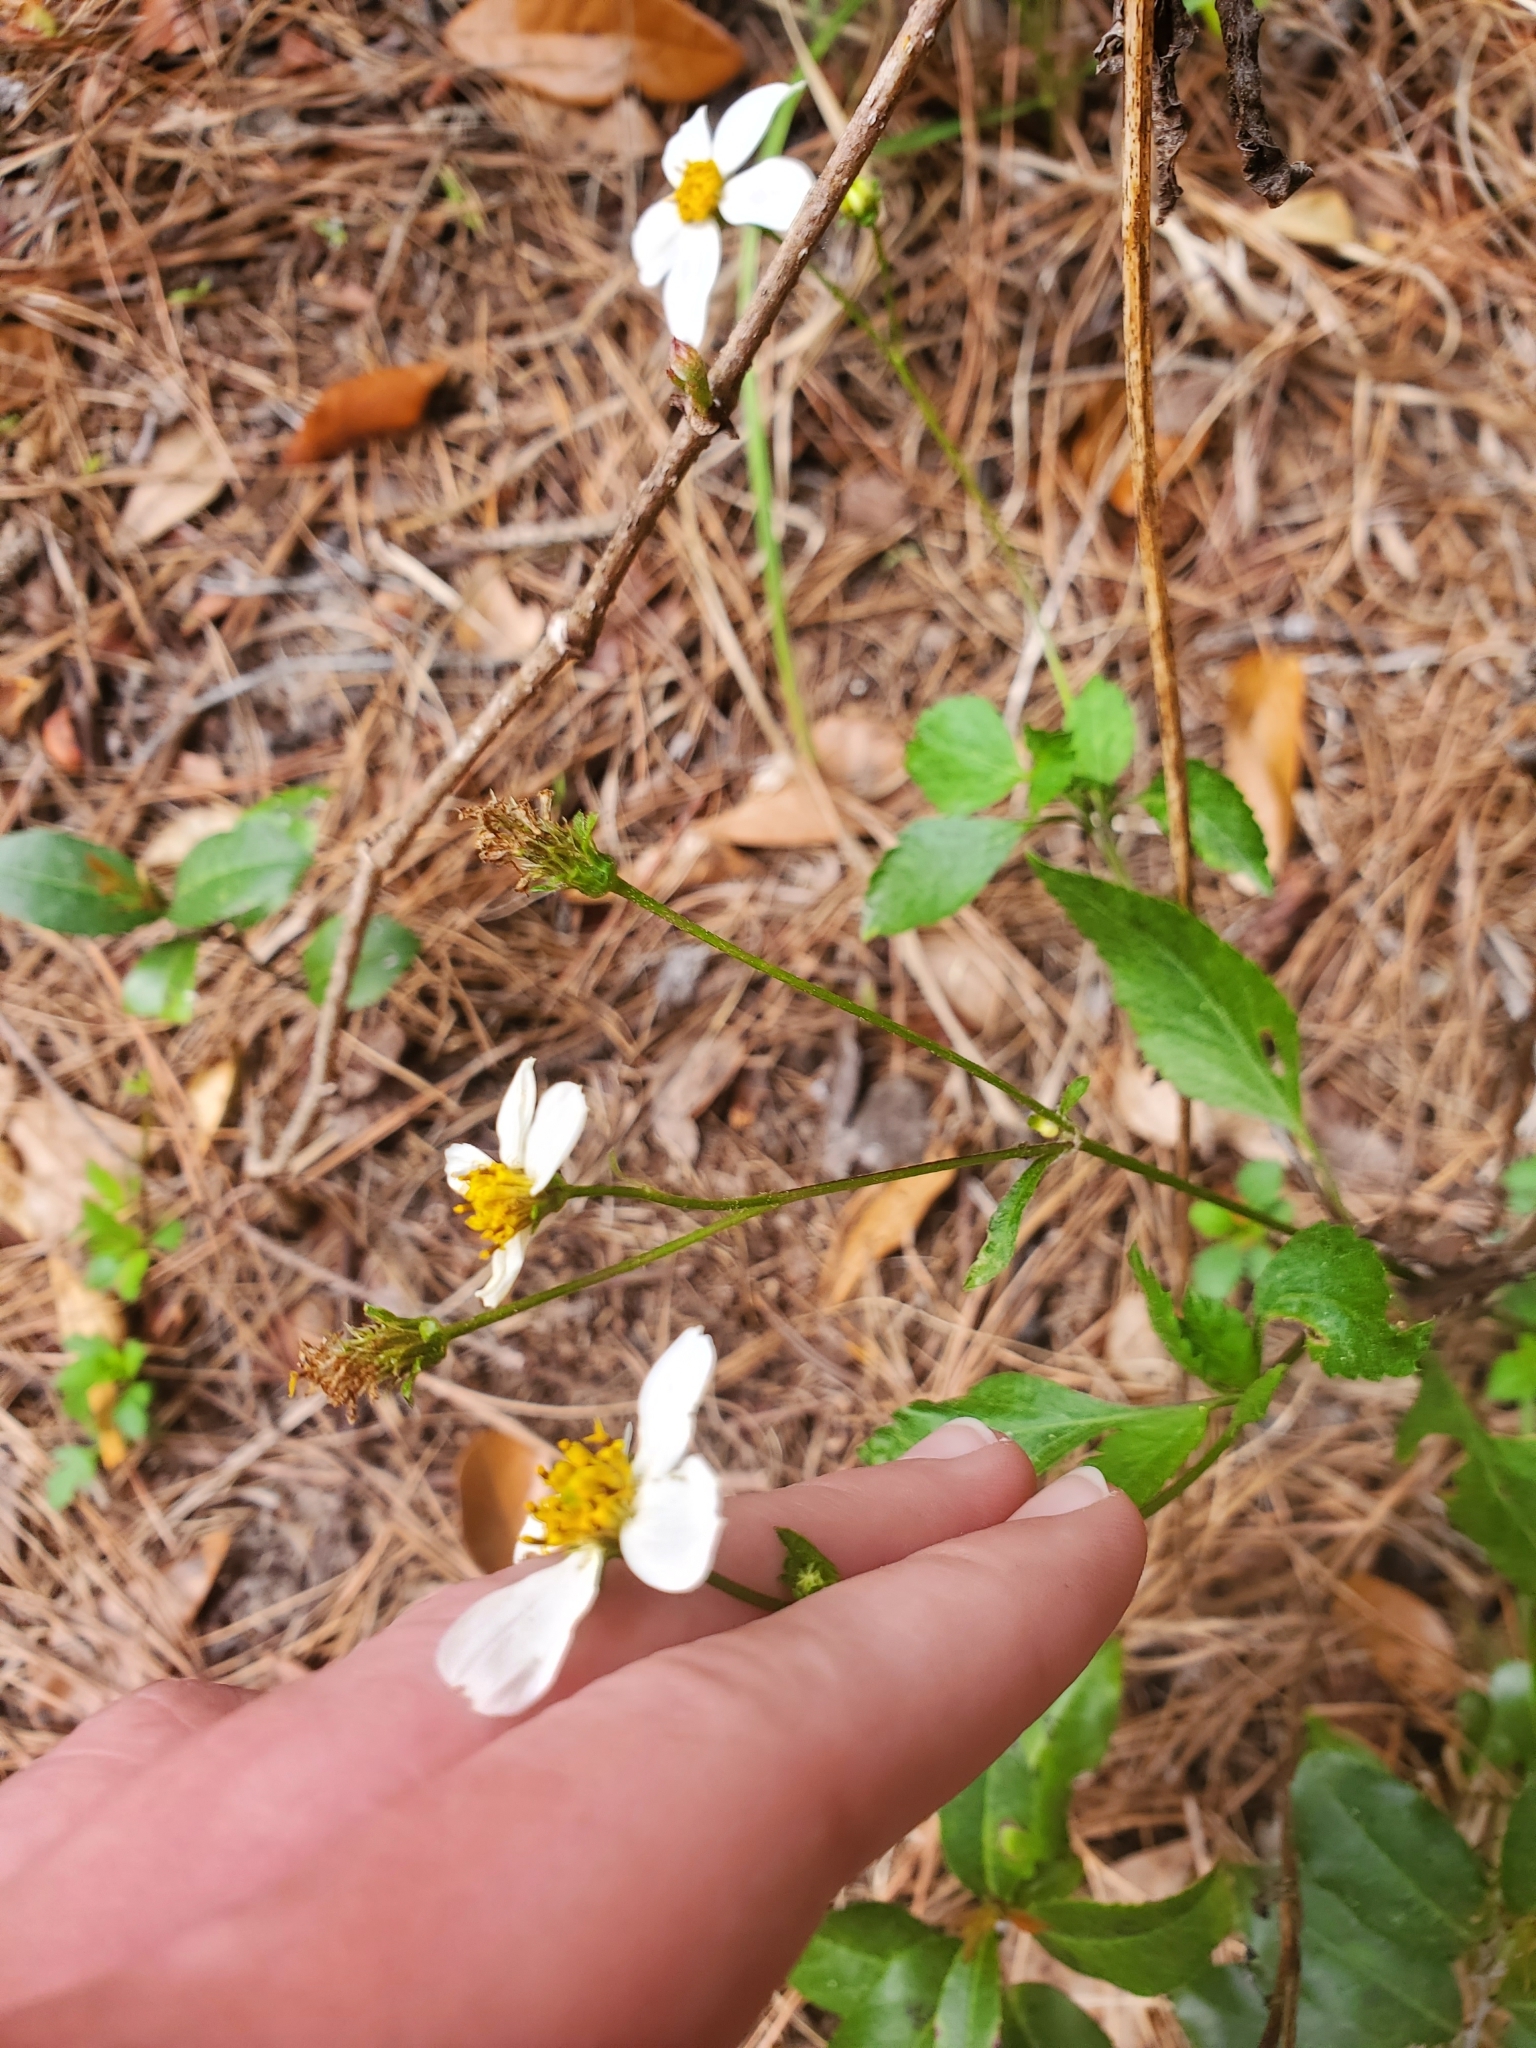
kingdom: Plantae
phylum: Tracheophyta
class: Magnoliopsida
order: Asterales
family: Asteraceae
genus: Bidens
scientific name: Bidens alba
